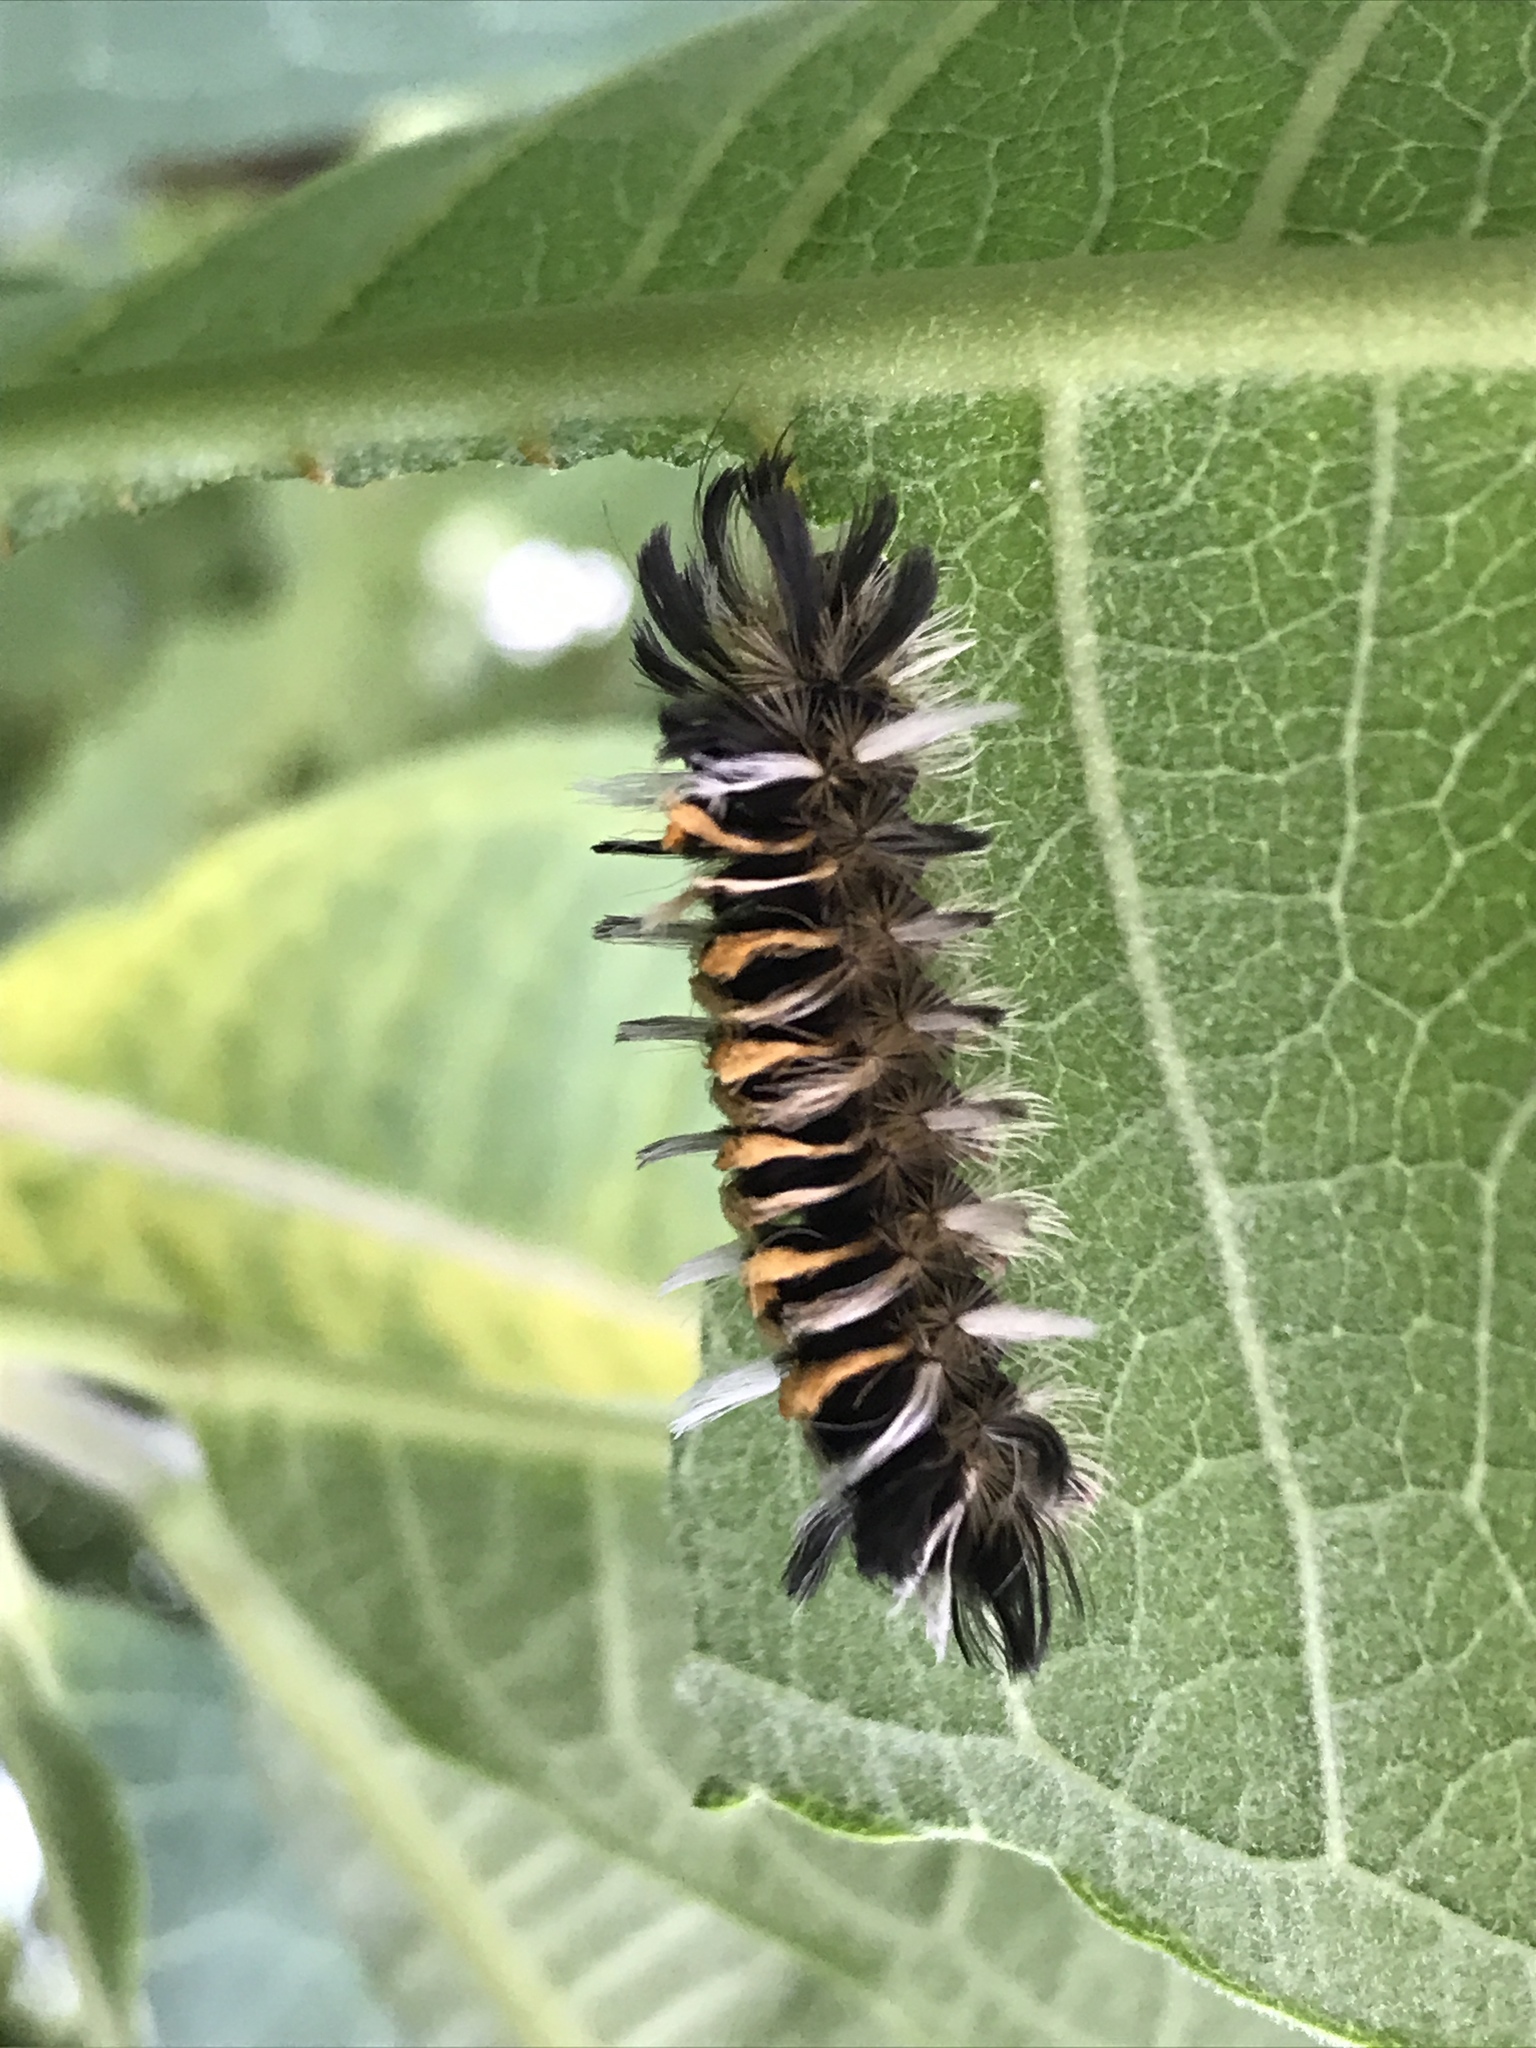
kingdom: Animalia
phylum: Arthropoda
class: Insecta
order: Lepidoptera
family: Erebidae
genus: Euchaetes
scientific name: Euchaetes egle
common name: Milkweed tussock moth
